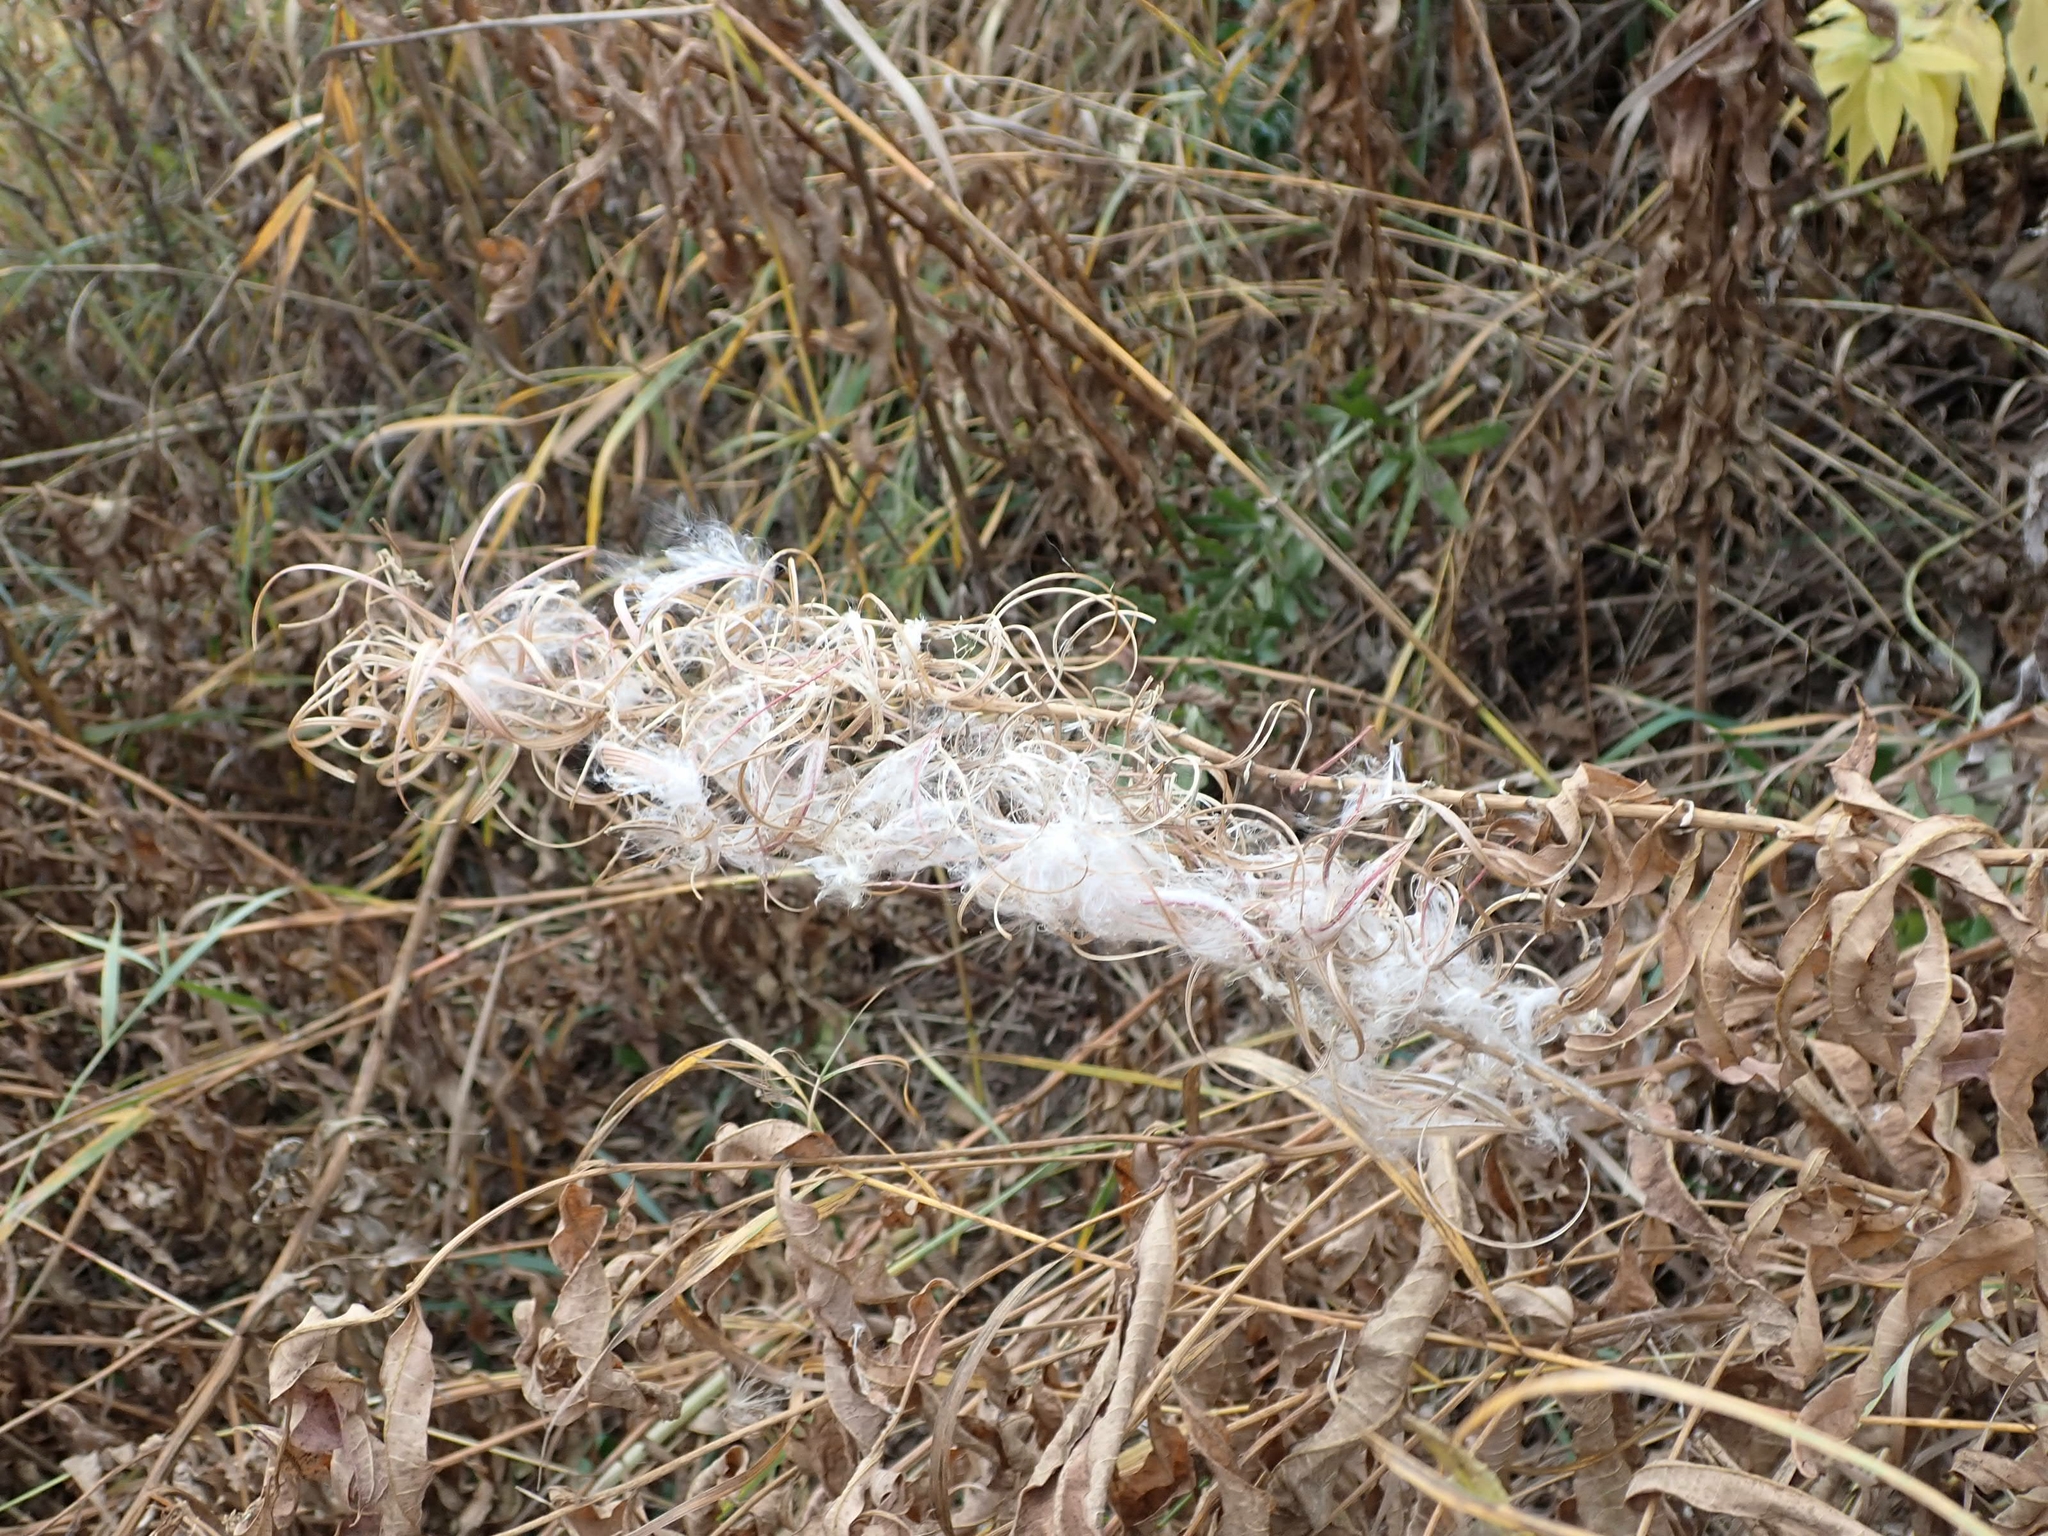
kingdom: Plantae
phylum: Tracheophyta
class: Magnoliopsida
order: Myrtales
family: Onagraceae
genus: Chamaenerion
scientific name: Chamaenerion angustifolium
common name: Fireweed
